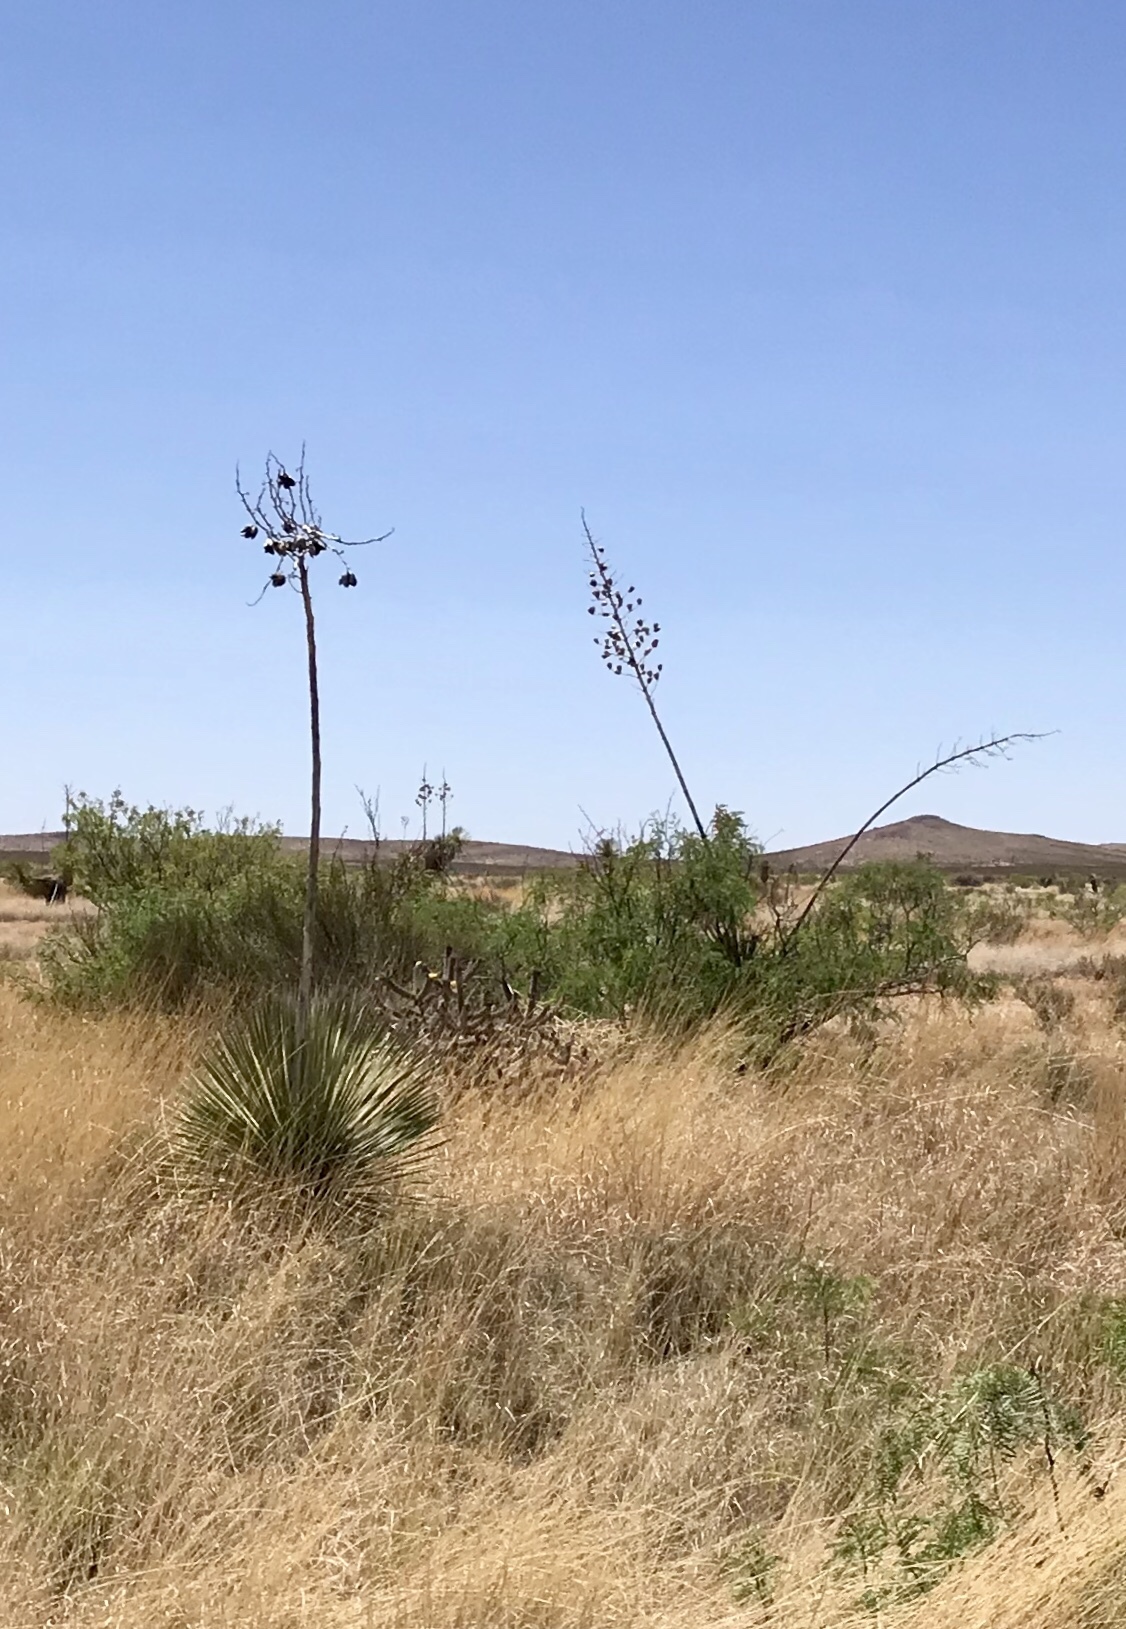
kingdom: Plantae
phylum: Tracheophyta
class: Liliopsida
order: Asparagales
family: Asparagaceae
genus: Yucca
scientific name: Yucca elata
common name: Palmella
